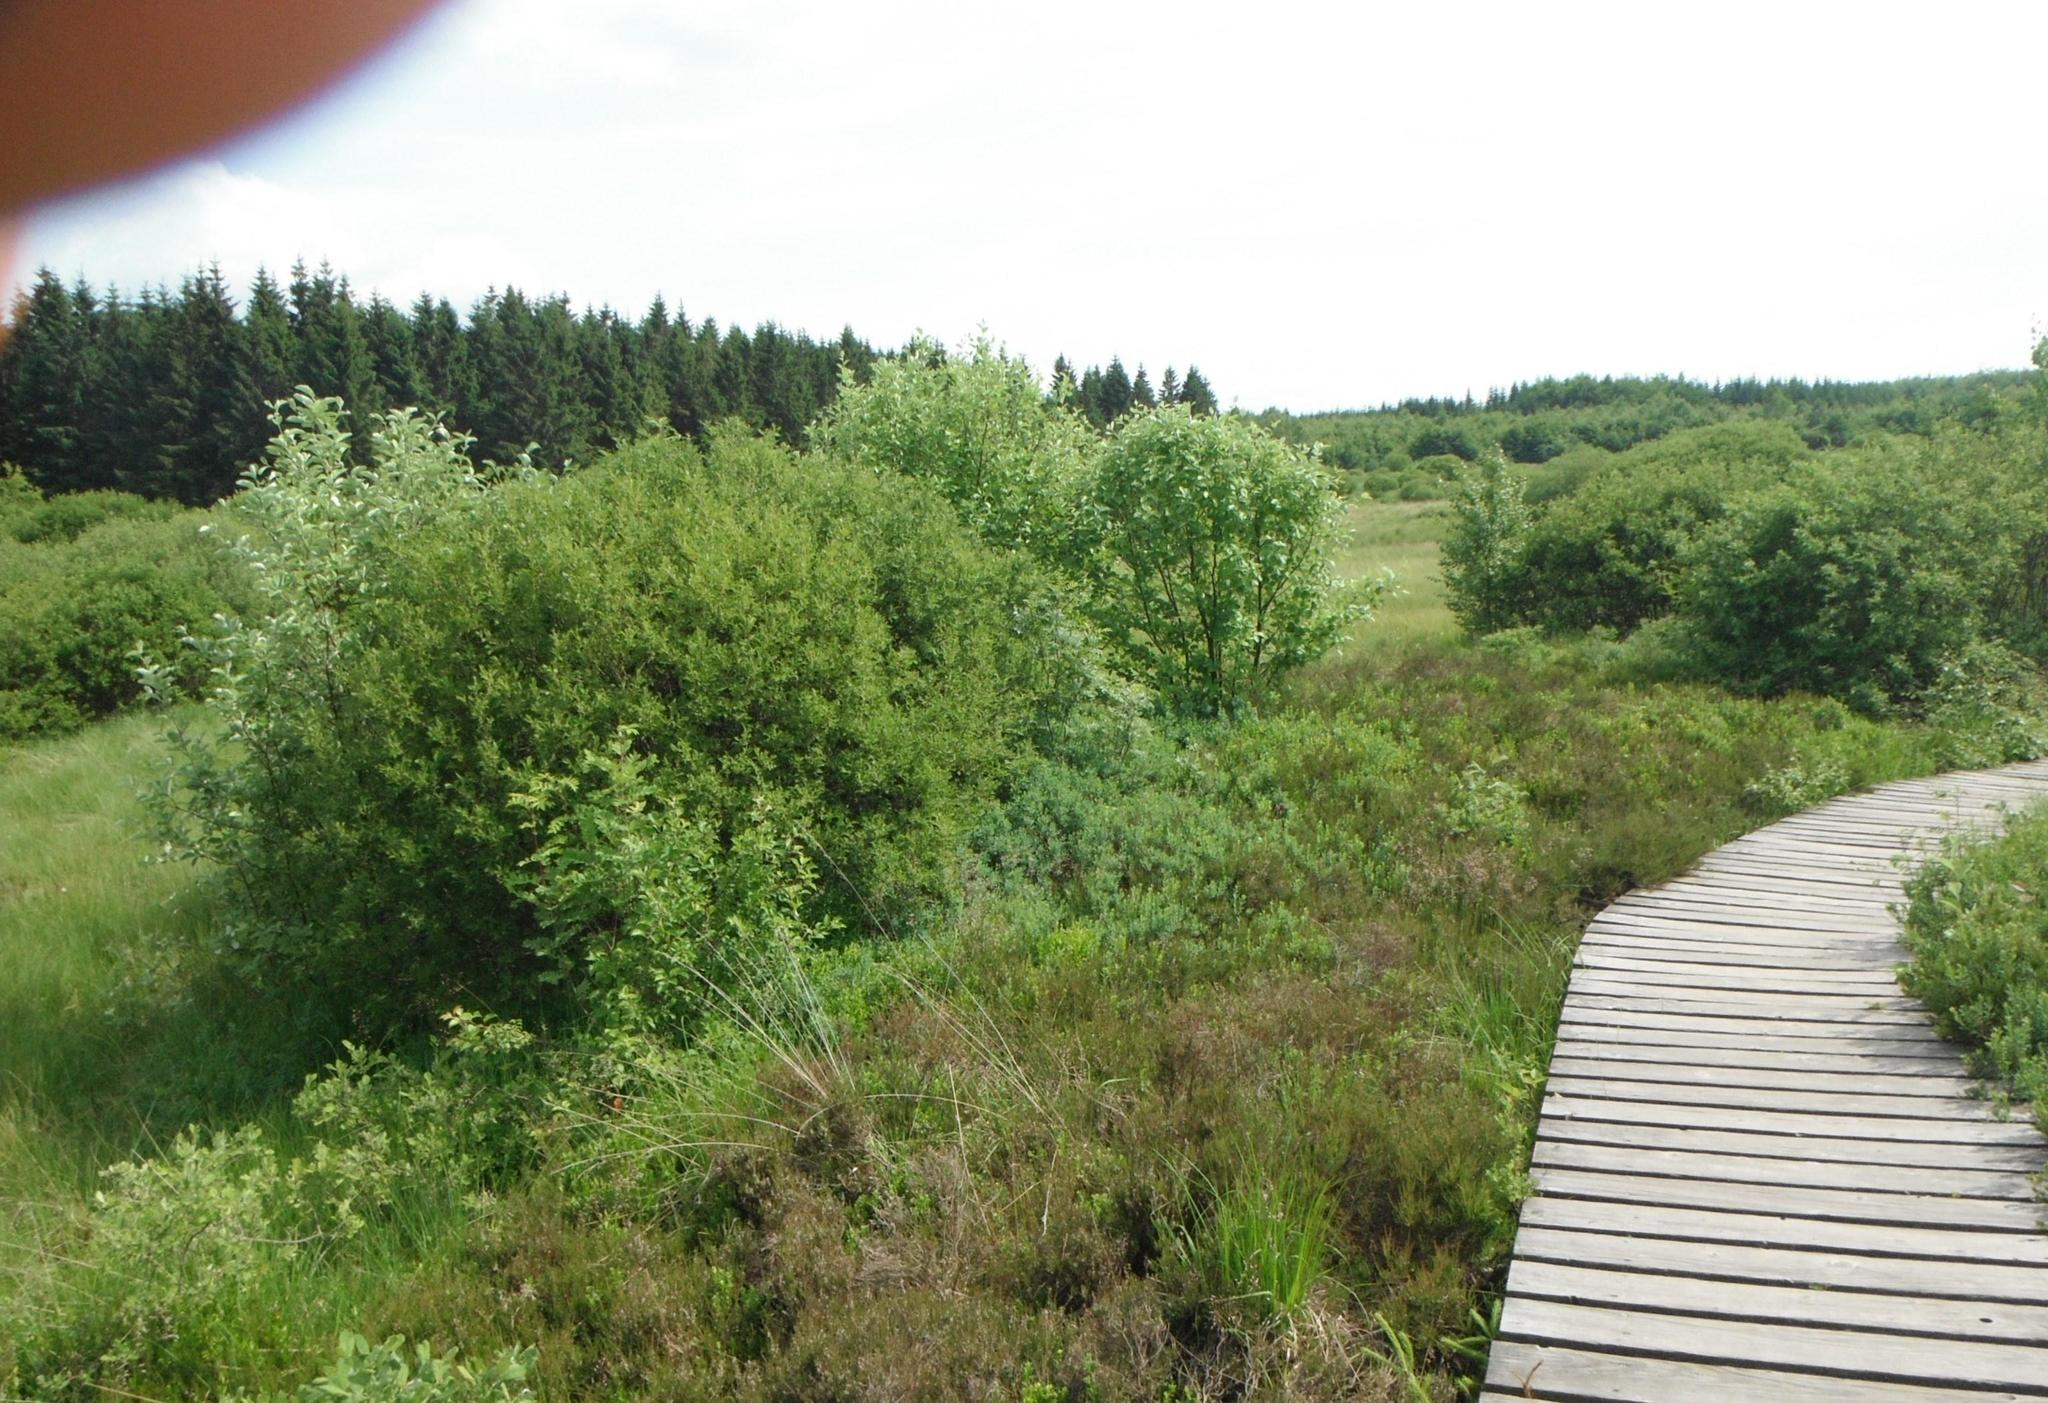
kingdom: Plantae
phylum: Tracheophyta
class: Magnoliopsida
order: Rosales
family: Rosaceae
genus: Aria
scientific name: Aria edulis
